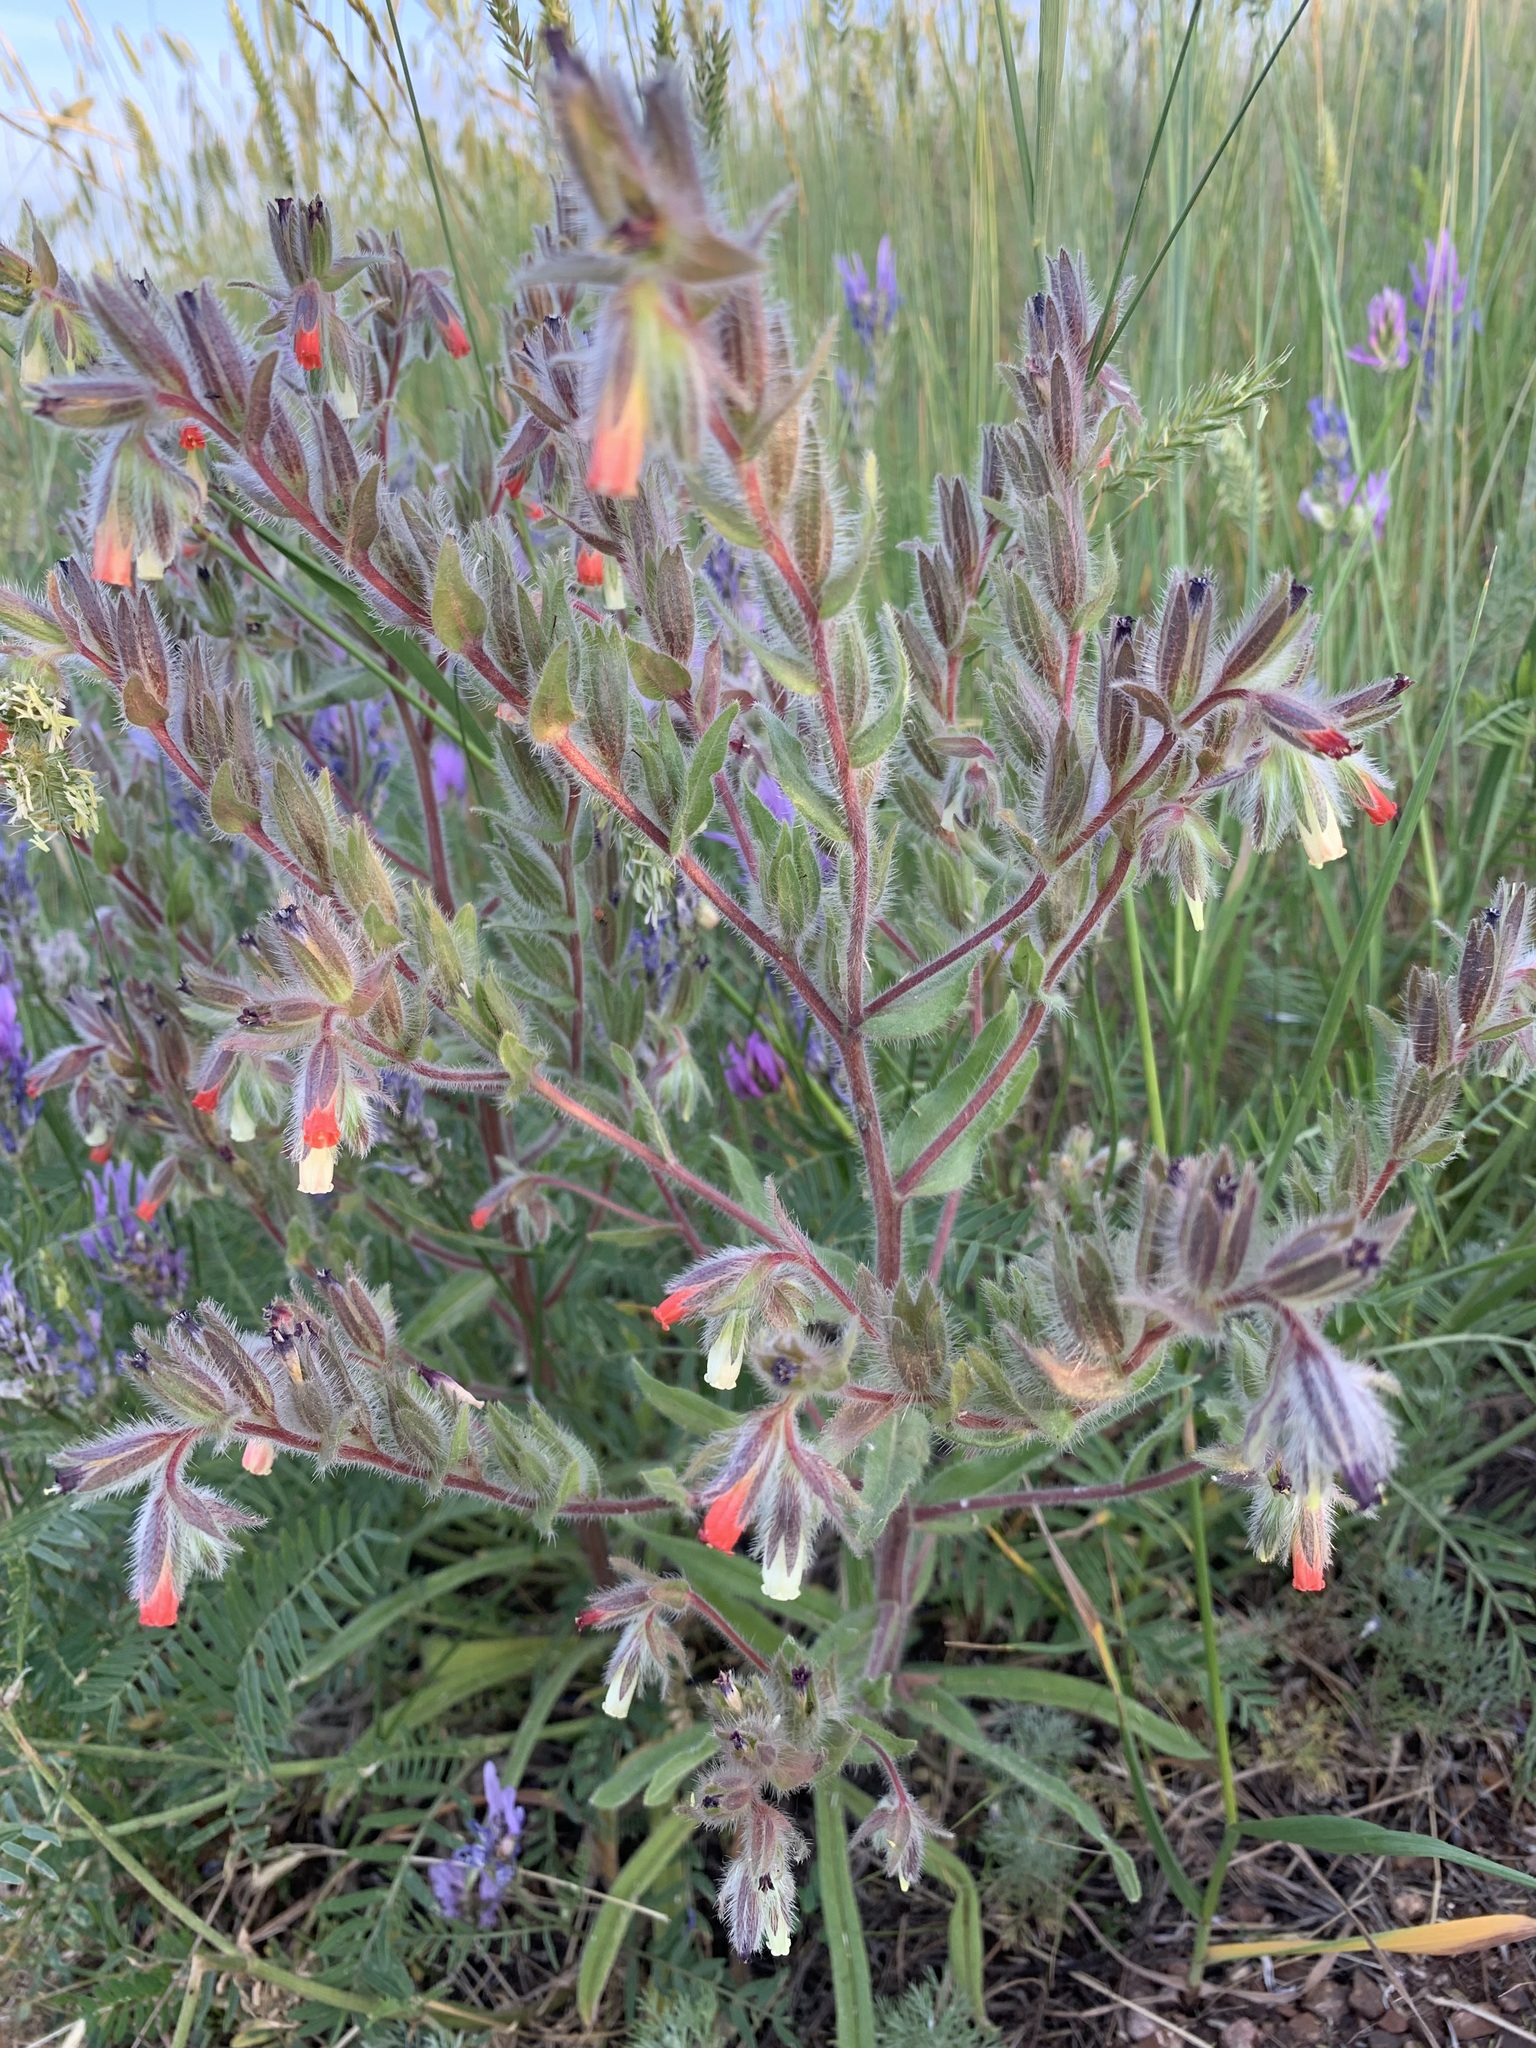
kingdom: Plantae
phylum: Tracheophyta
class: Magnoliopsida
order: Boraginales
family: Boraginaceae
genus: Onosma
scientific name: Onosma polychroma
